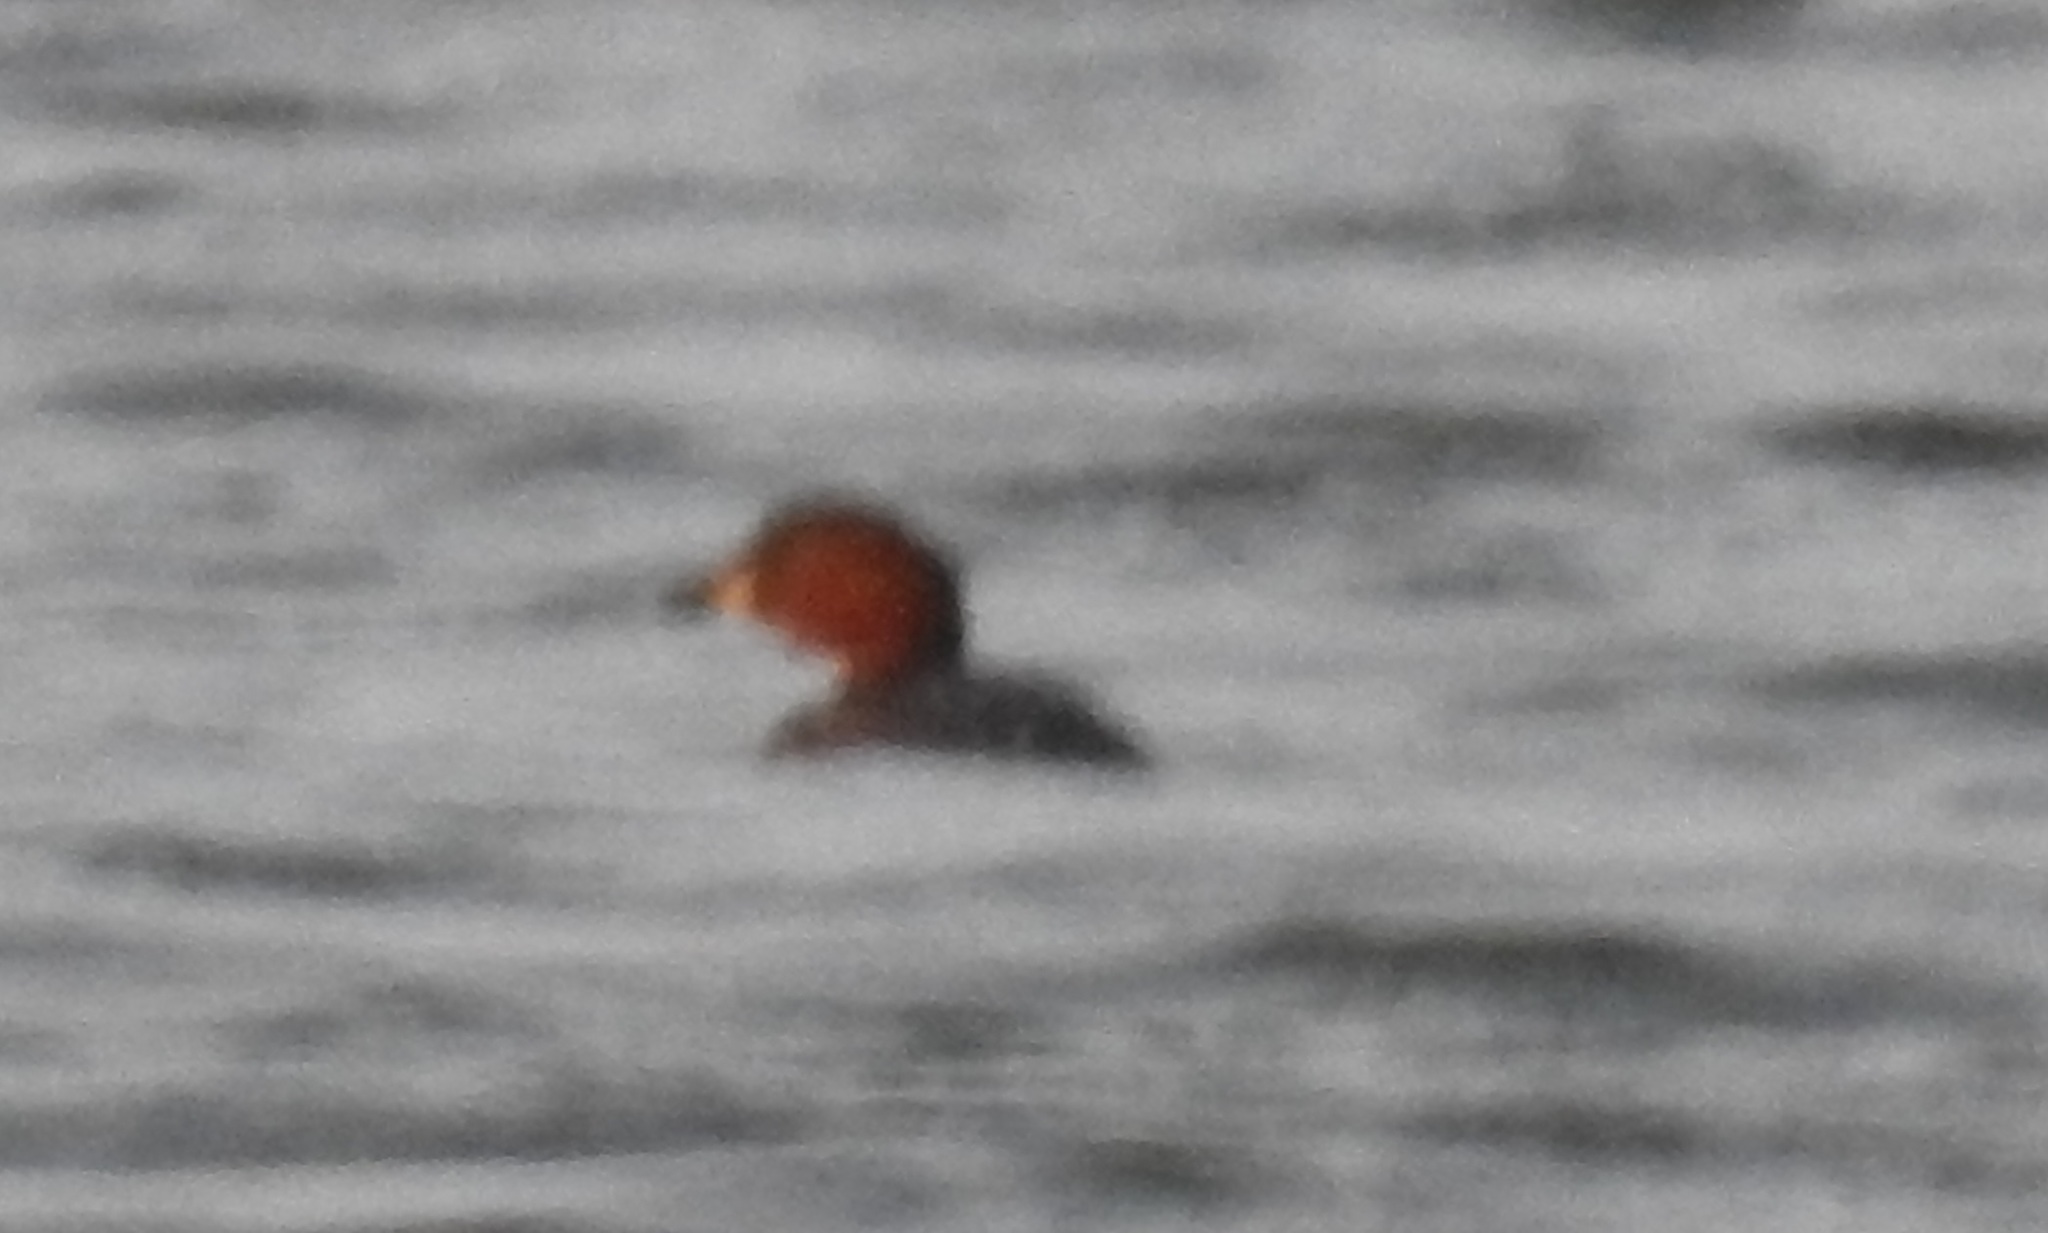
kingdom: Animalia
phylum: Chordata
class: Aves
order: Podicipediformes
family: Podicipedidae
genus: Tachybaptus
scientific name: Tachybaptus ruficollis
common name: Little grebe
